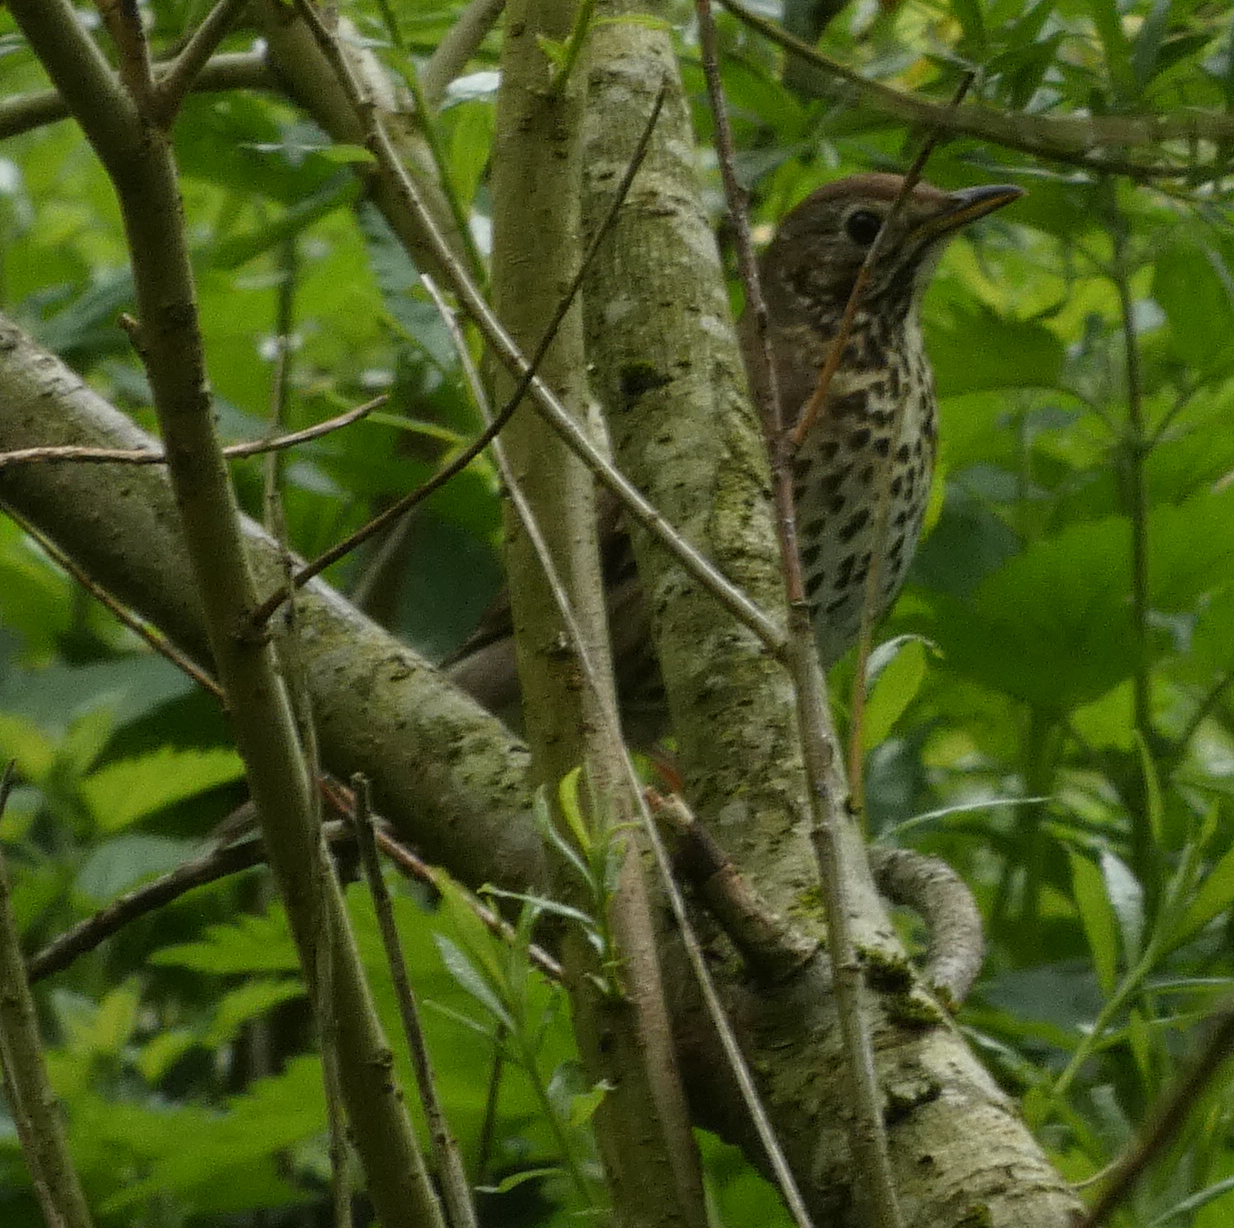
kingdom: Animalia
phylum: Chordata
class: Aves
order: Passeriformes
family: Turdidae
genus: Turdus
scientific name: Turdus philomelos
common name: Song thrush
